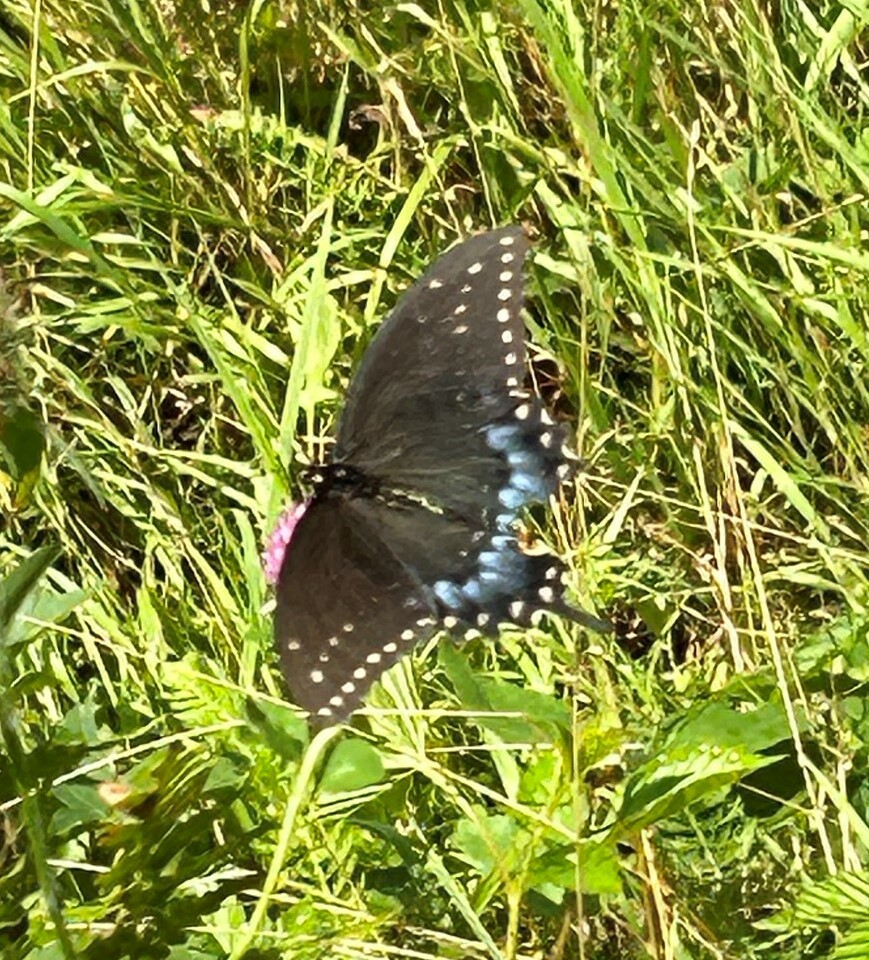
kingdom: Animalia
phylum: Arthropoda
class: Insecta
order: Lepidoptera
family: Papilionidae
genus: Papilio
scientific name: Papilio polyxenes
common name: Black swallowtail
